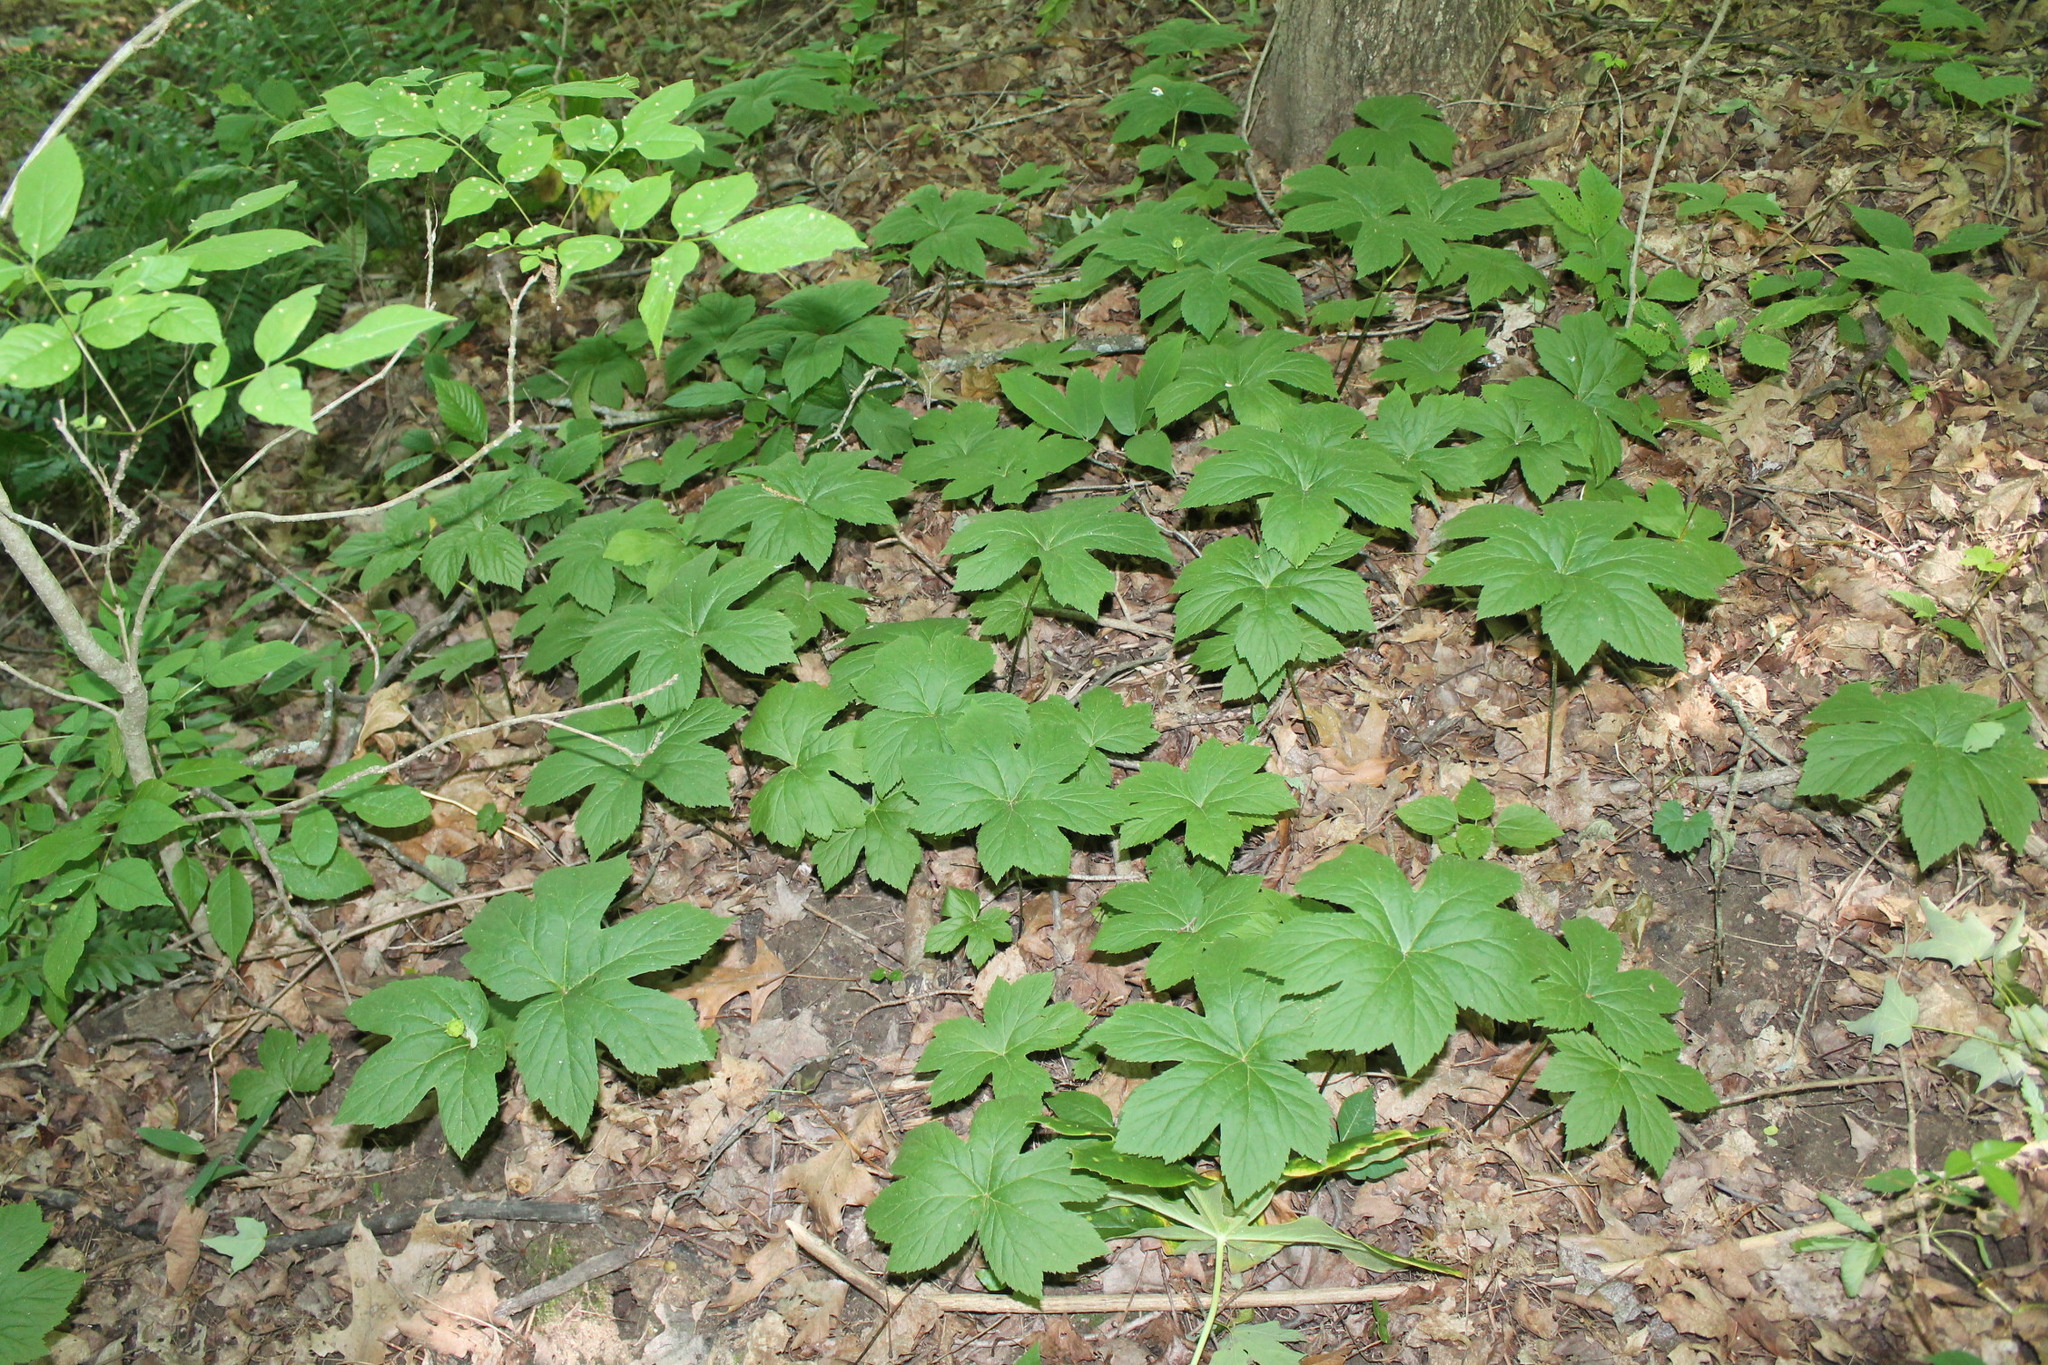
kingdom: Plantae
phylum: Tracheophyta
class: Magnoliopsida
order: Ranunculales
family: Ranunculaceae
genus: Hydrastis
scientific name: Hydrastis canadensis
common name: Goldenseal
